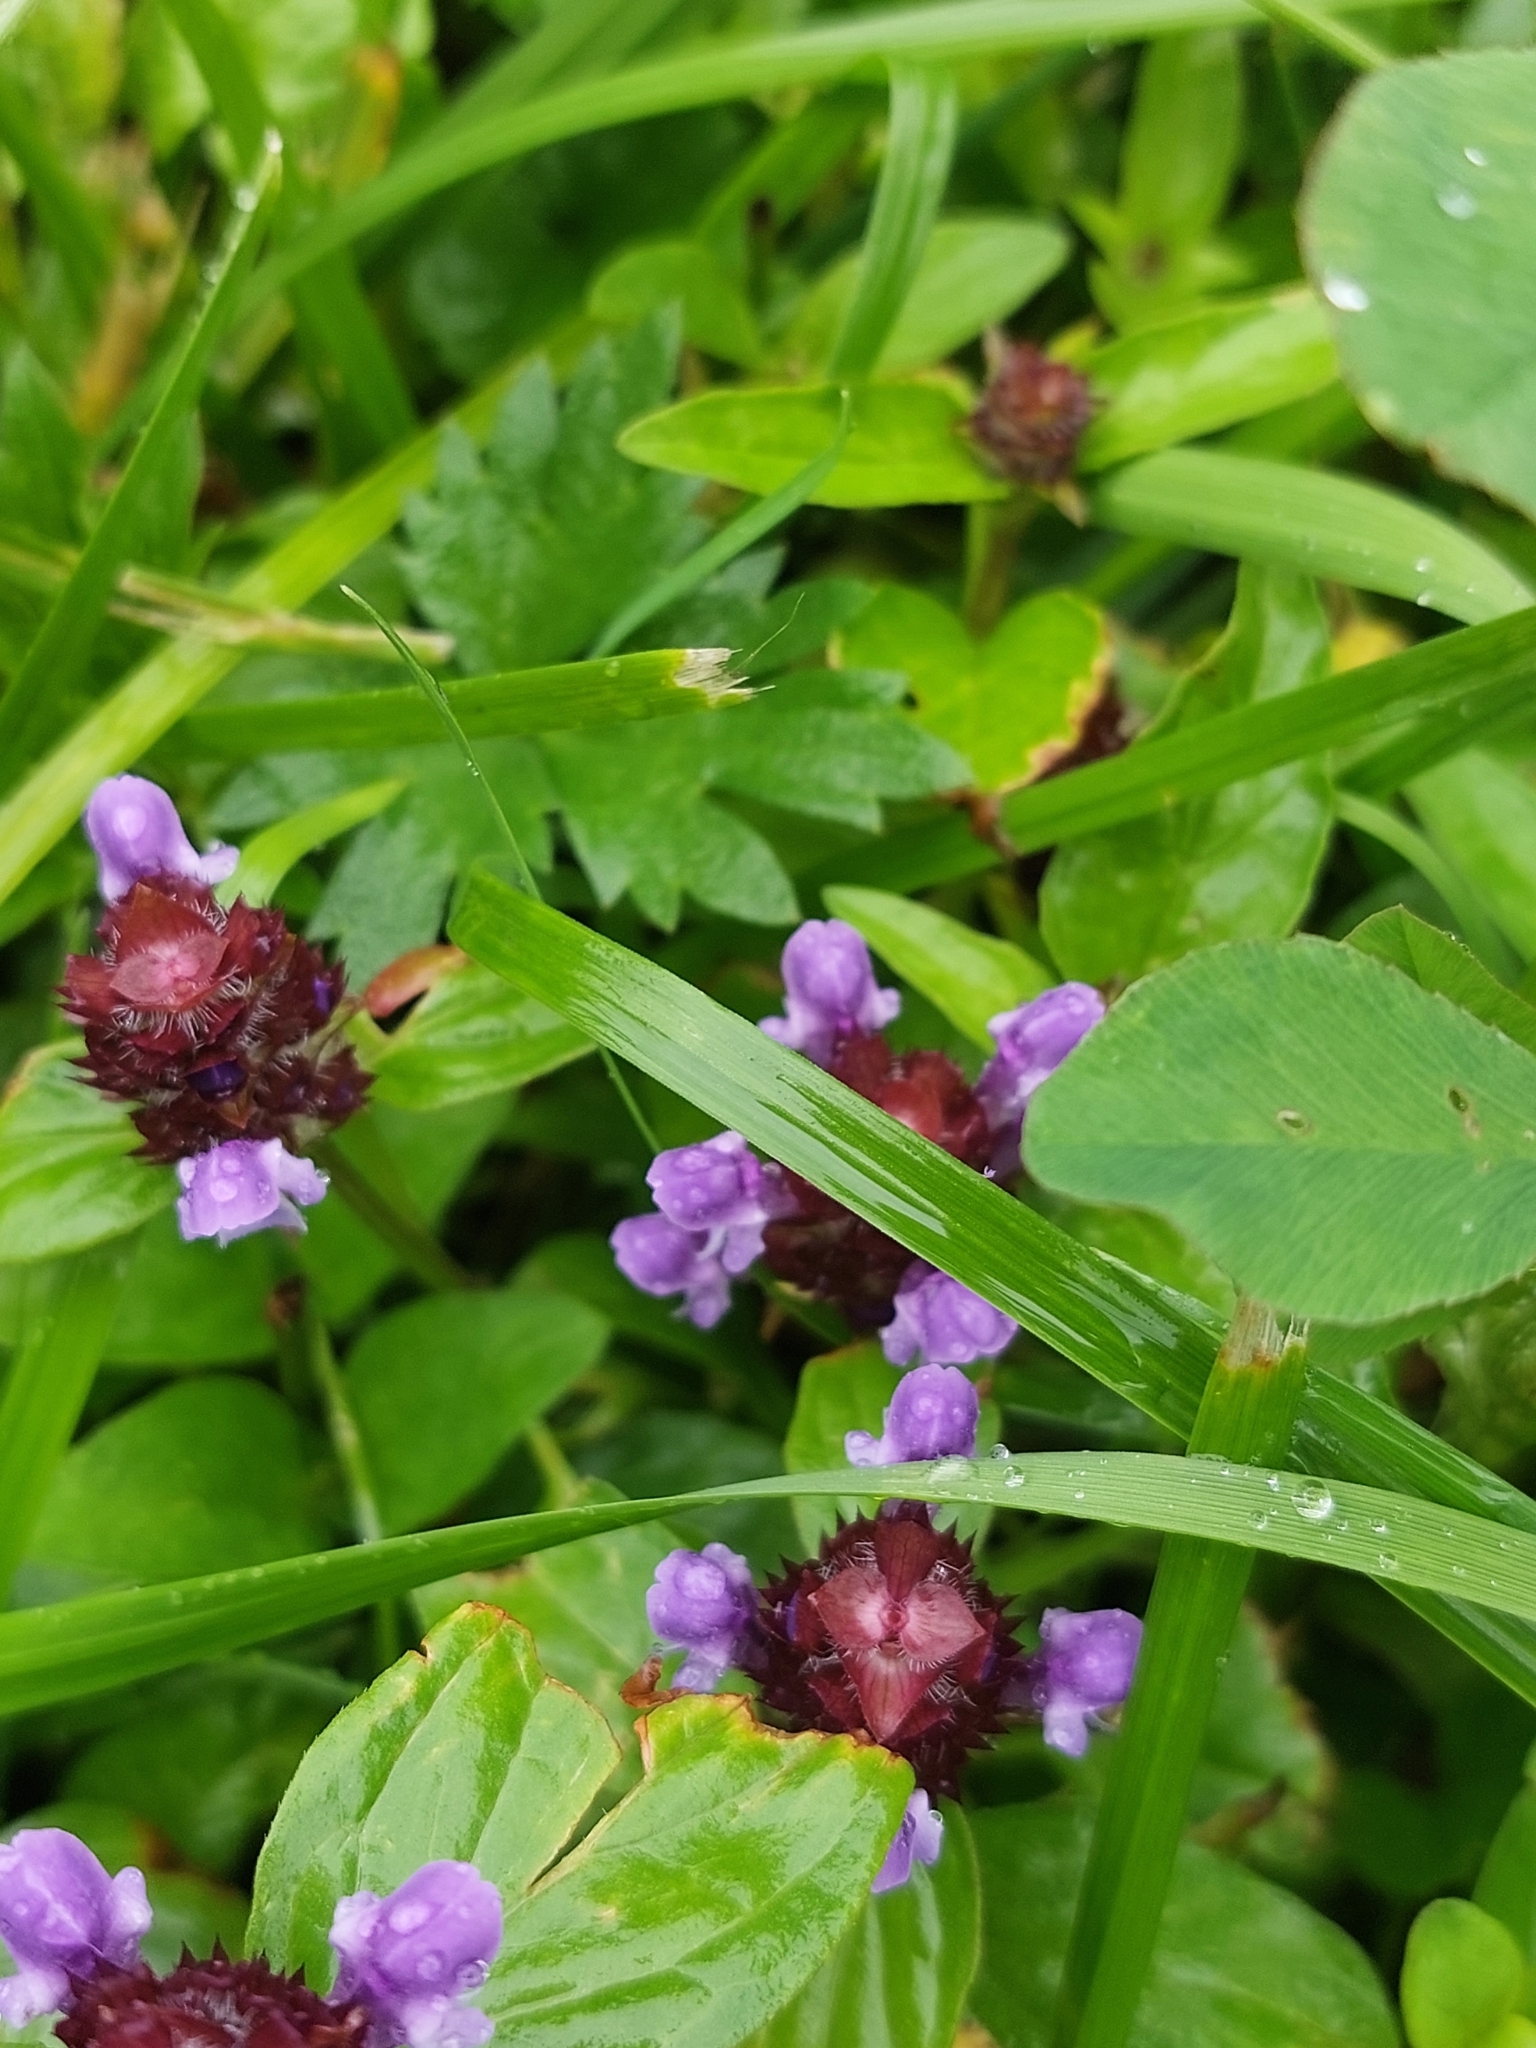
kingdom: Plantae
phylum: Tracheophyta
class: Magnoliopsida
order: Lamiales
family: Lamiaceae
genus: Prunella
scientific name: Prunella vulgaris
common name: Heal-all
